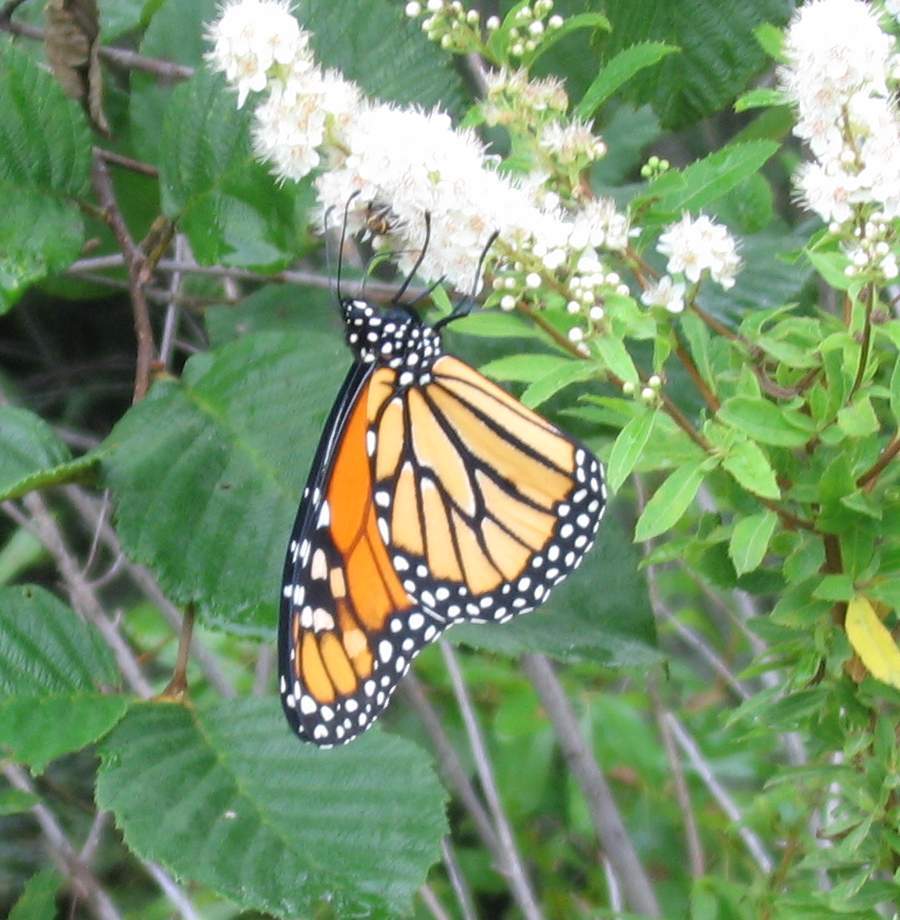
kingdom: Animalia
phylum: Arthropoda
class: Insecta
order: Lepidoptera
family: Nymphalidae
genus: Danaus
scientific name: Danaus plexippus
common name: Monarch
